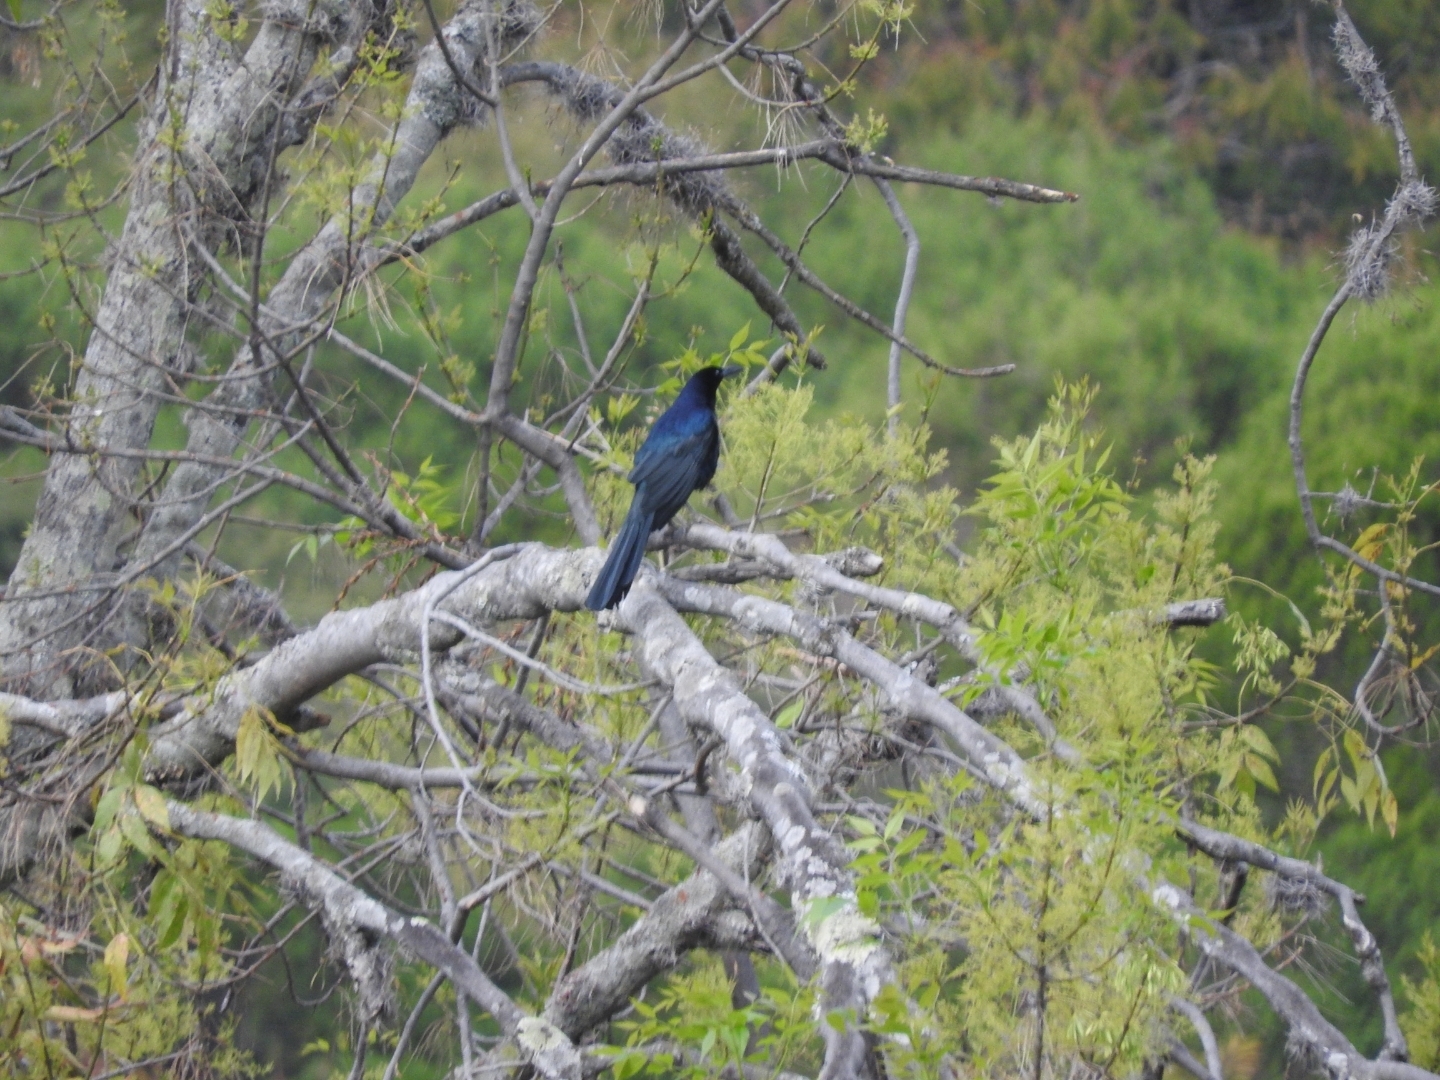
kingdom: Animalia
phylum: Chordata
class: Aves
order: Passeriformes
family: Icteridae
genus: Quiscalus
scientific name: Quiscalus mexicanus
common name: Great-tailed grackle
